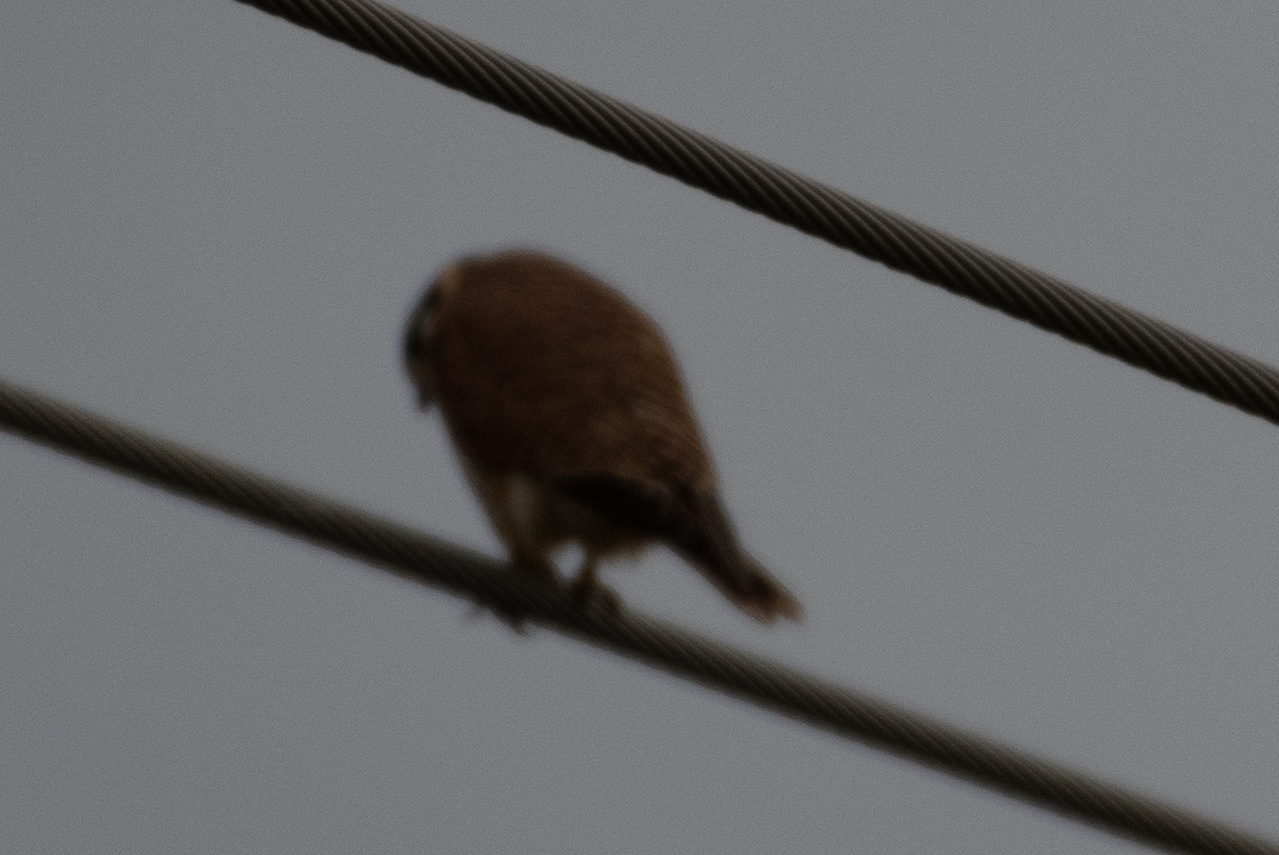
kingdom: Animalia
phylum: Chordata
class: Aves
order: Falconiformes
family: Falconidae
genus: Falco
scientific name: Falco sparverius
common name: American kestrel
